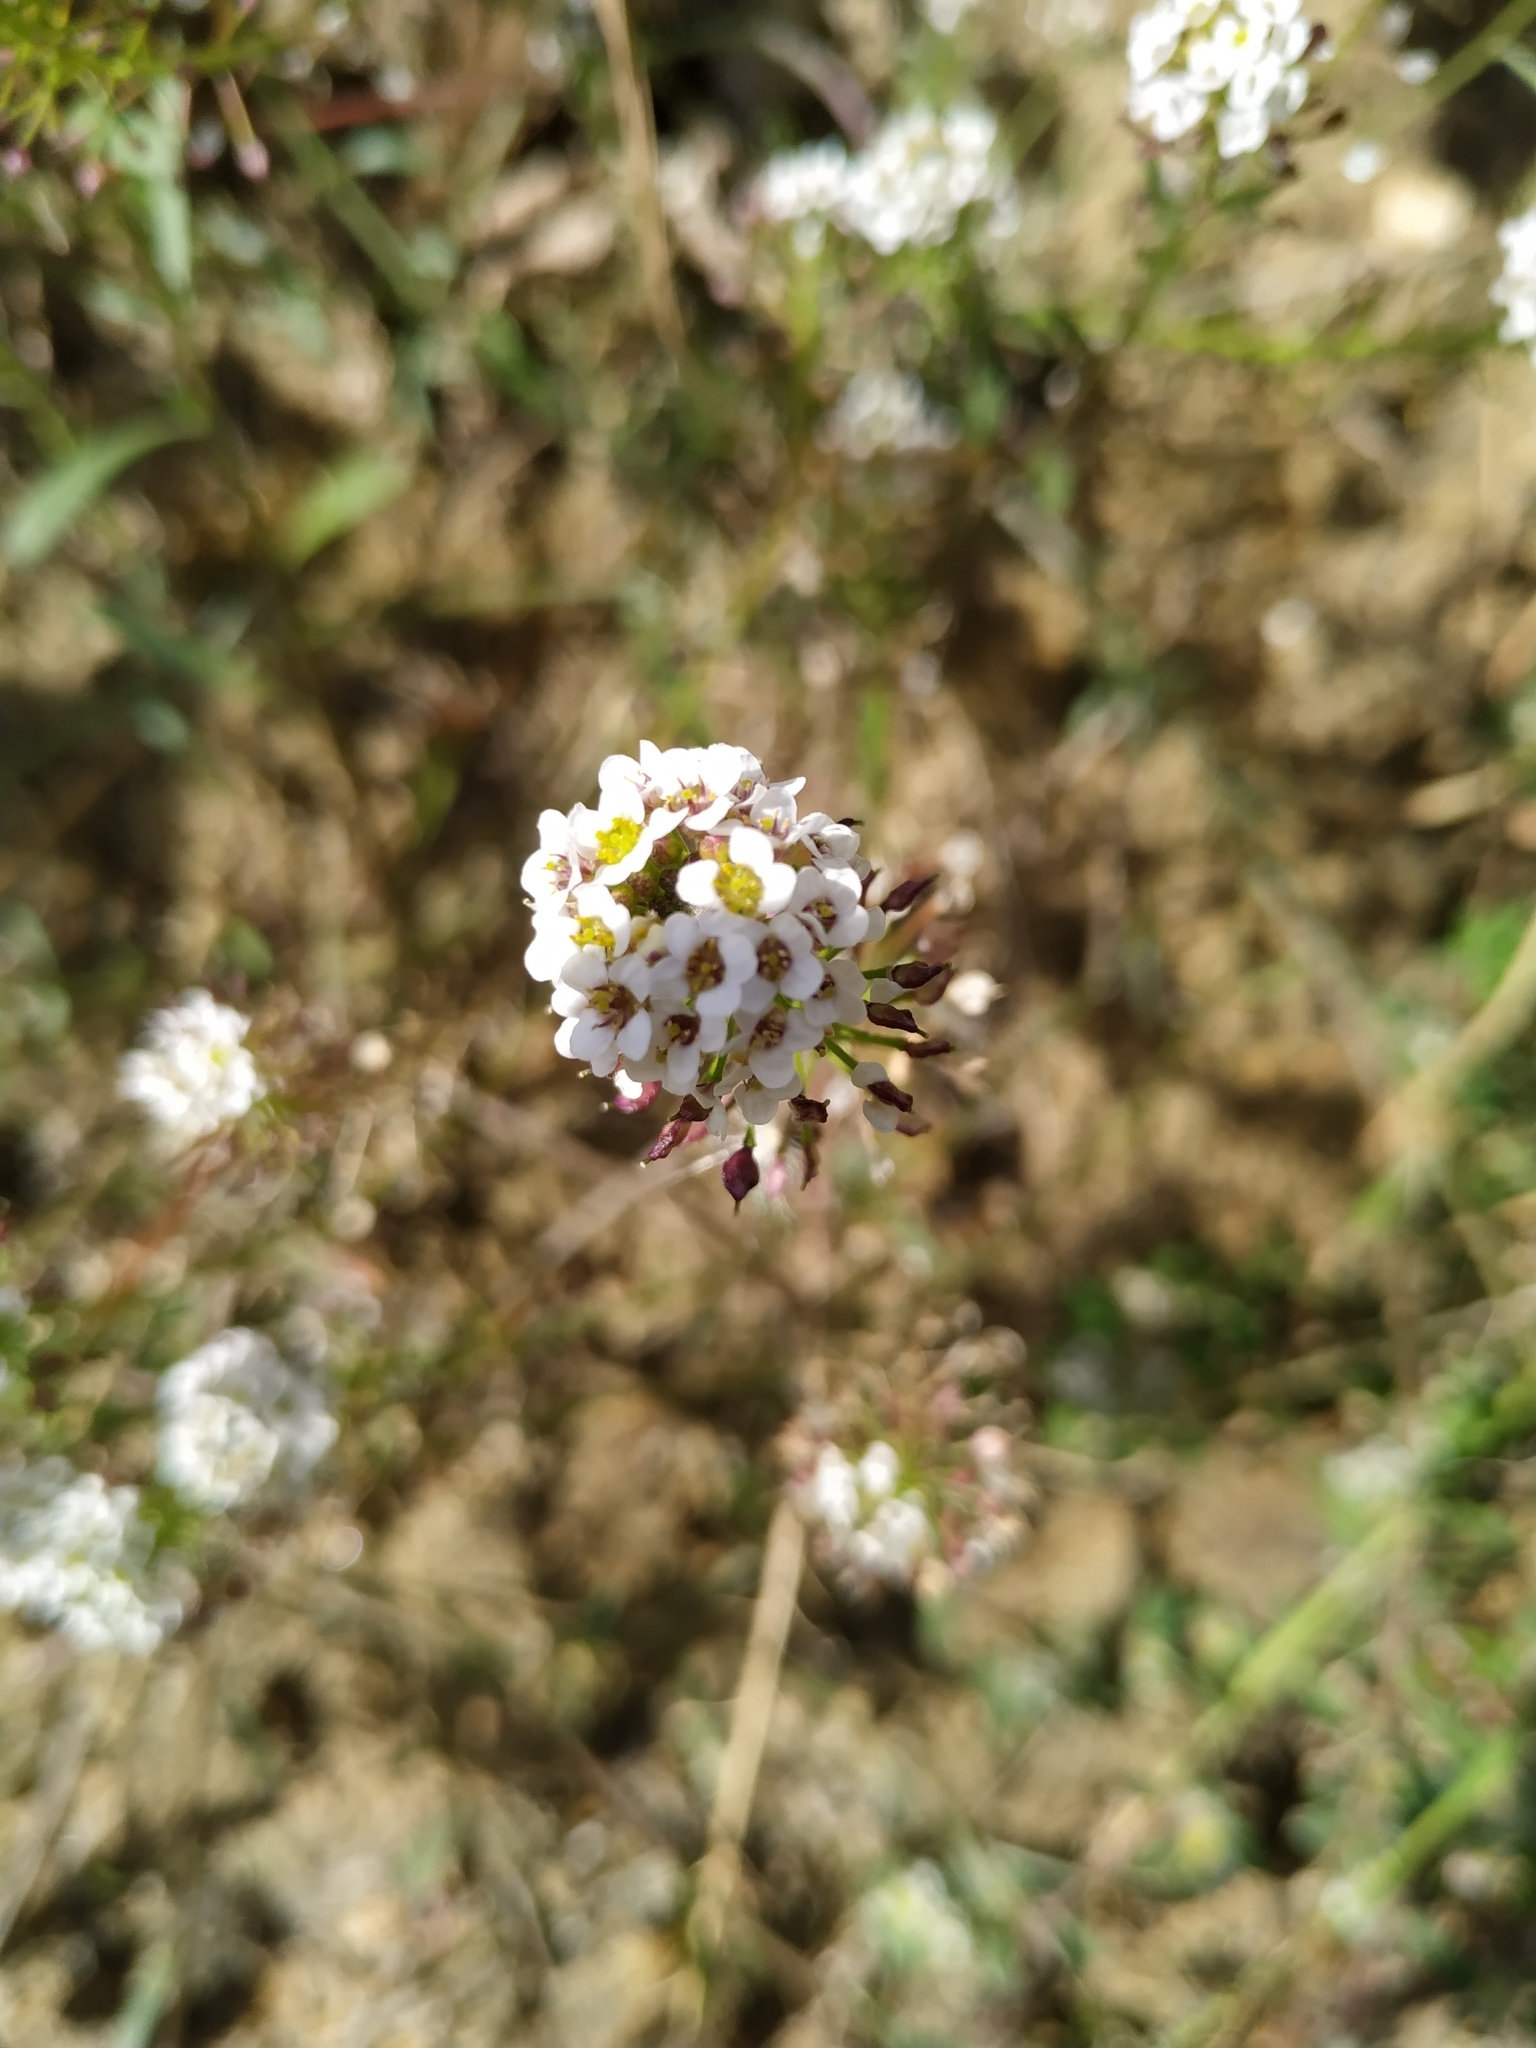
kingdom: Plantae
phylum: Tracheophyta
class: Magnoliopsida
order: Brassicales
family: Brassicaceae
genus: Lobularia
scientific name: Lobularia maritima
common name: Sweet alison
